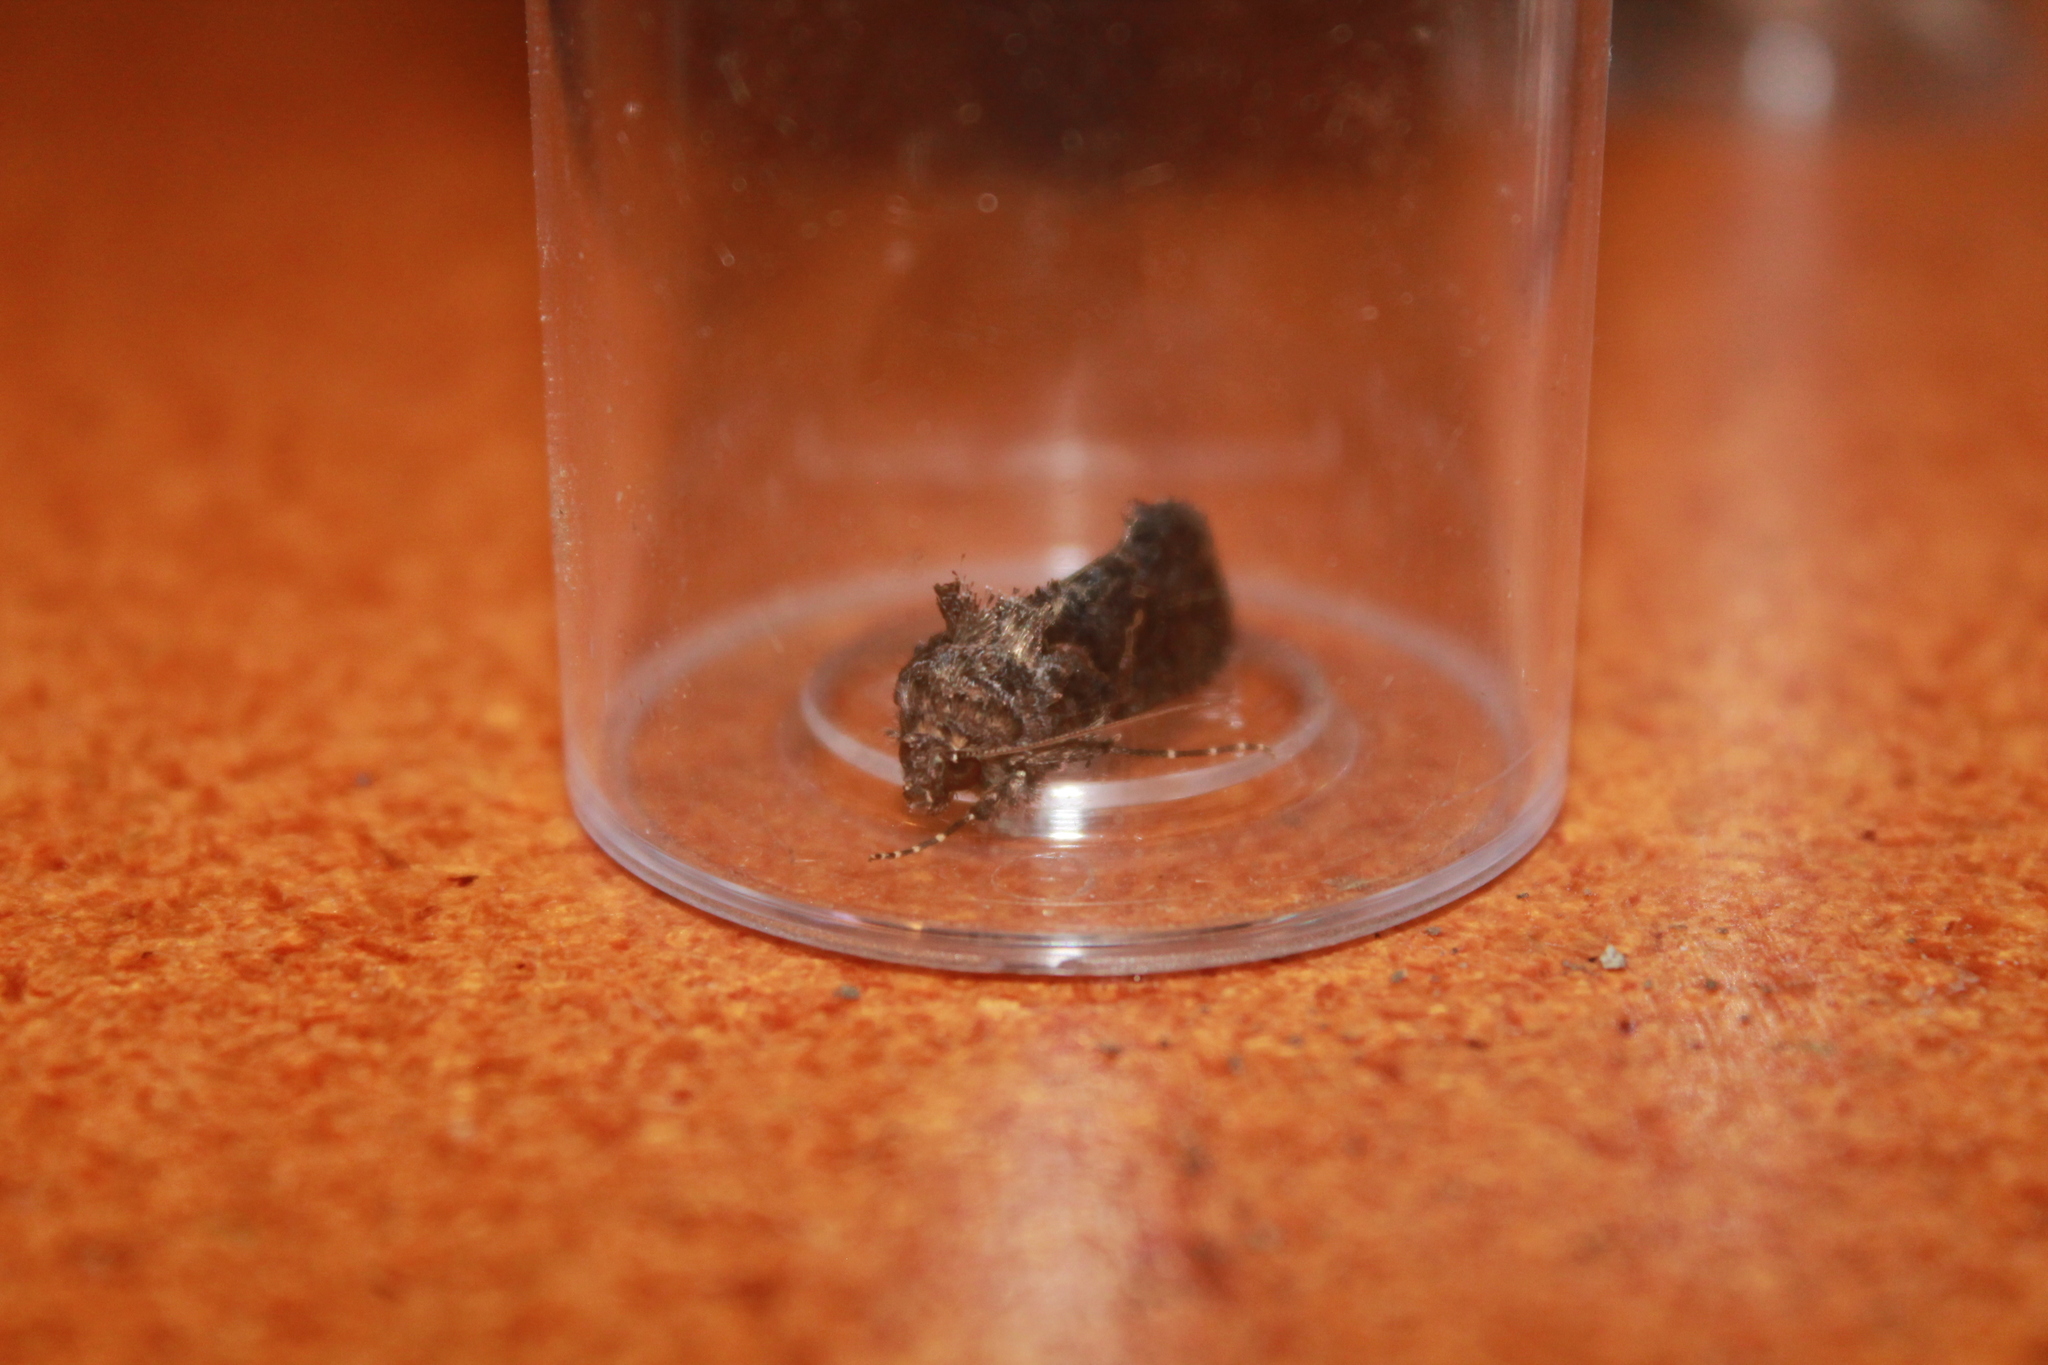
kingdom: Animalia
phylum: Arthropoda
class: Insecta
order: Lepidoptera
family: Noctuidae
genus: Ctenoplusia
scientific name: Ctenoplusia limbirena
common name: Scar bank gem
